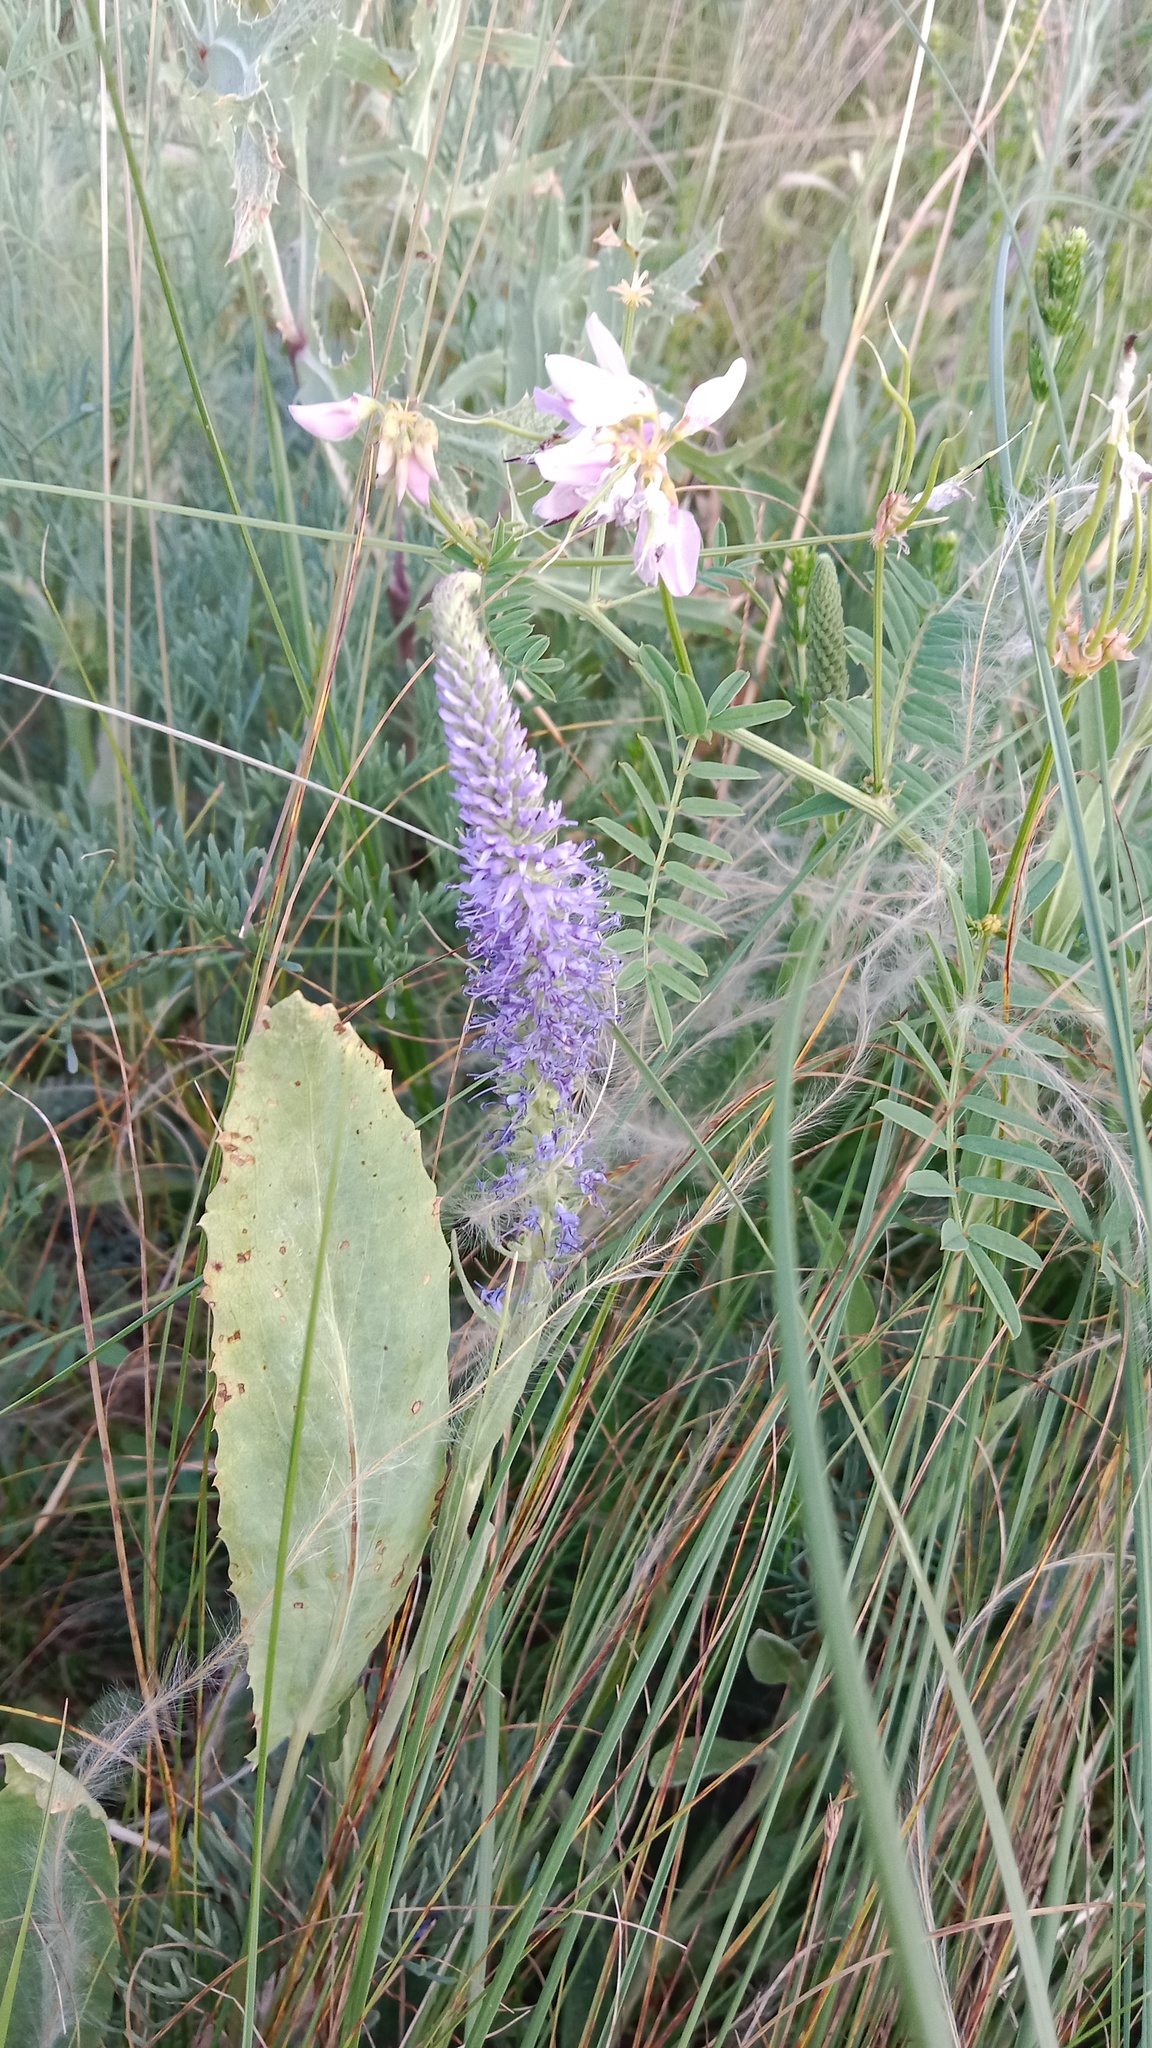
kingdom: Plantae
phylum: Tracheophyta
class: Magnoliopsida
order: Lamiales
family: Plantaginaceae
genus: Veronica
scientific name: Veronica barrelieri
